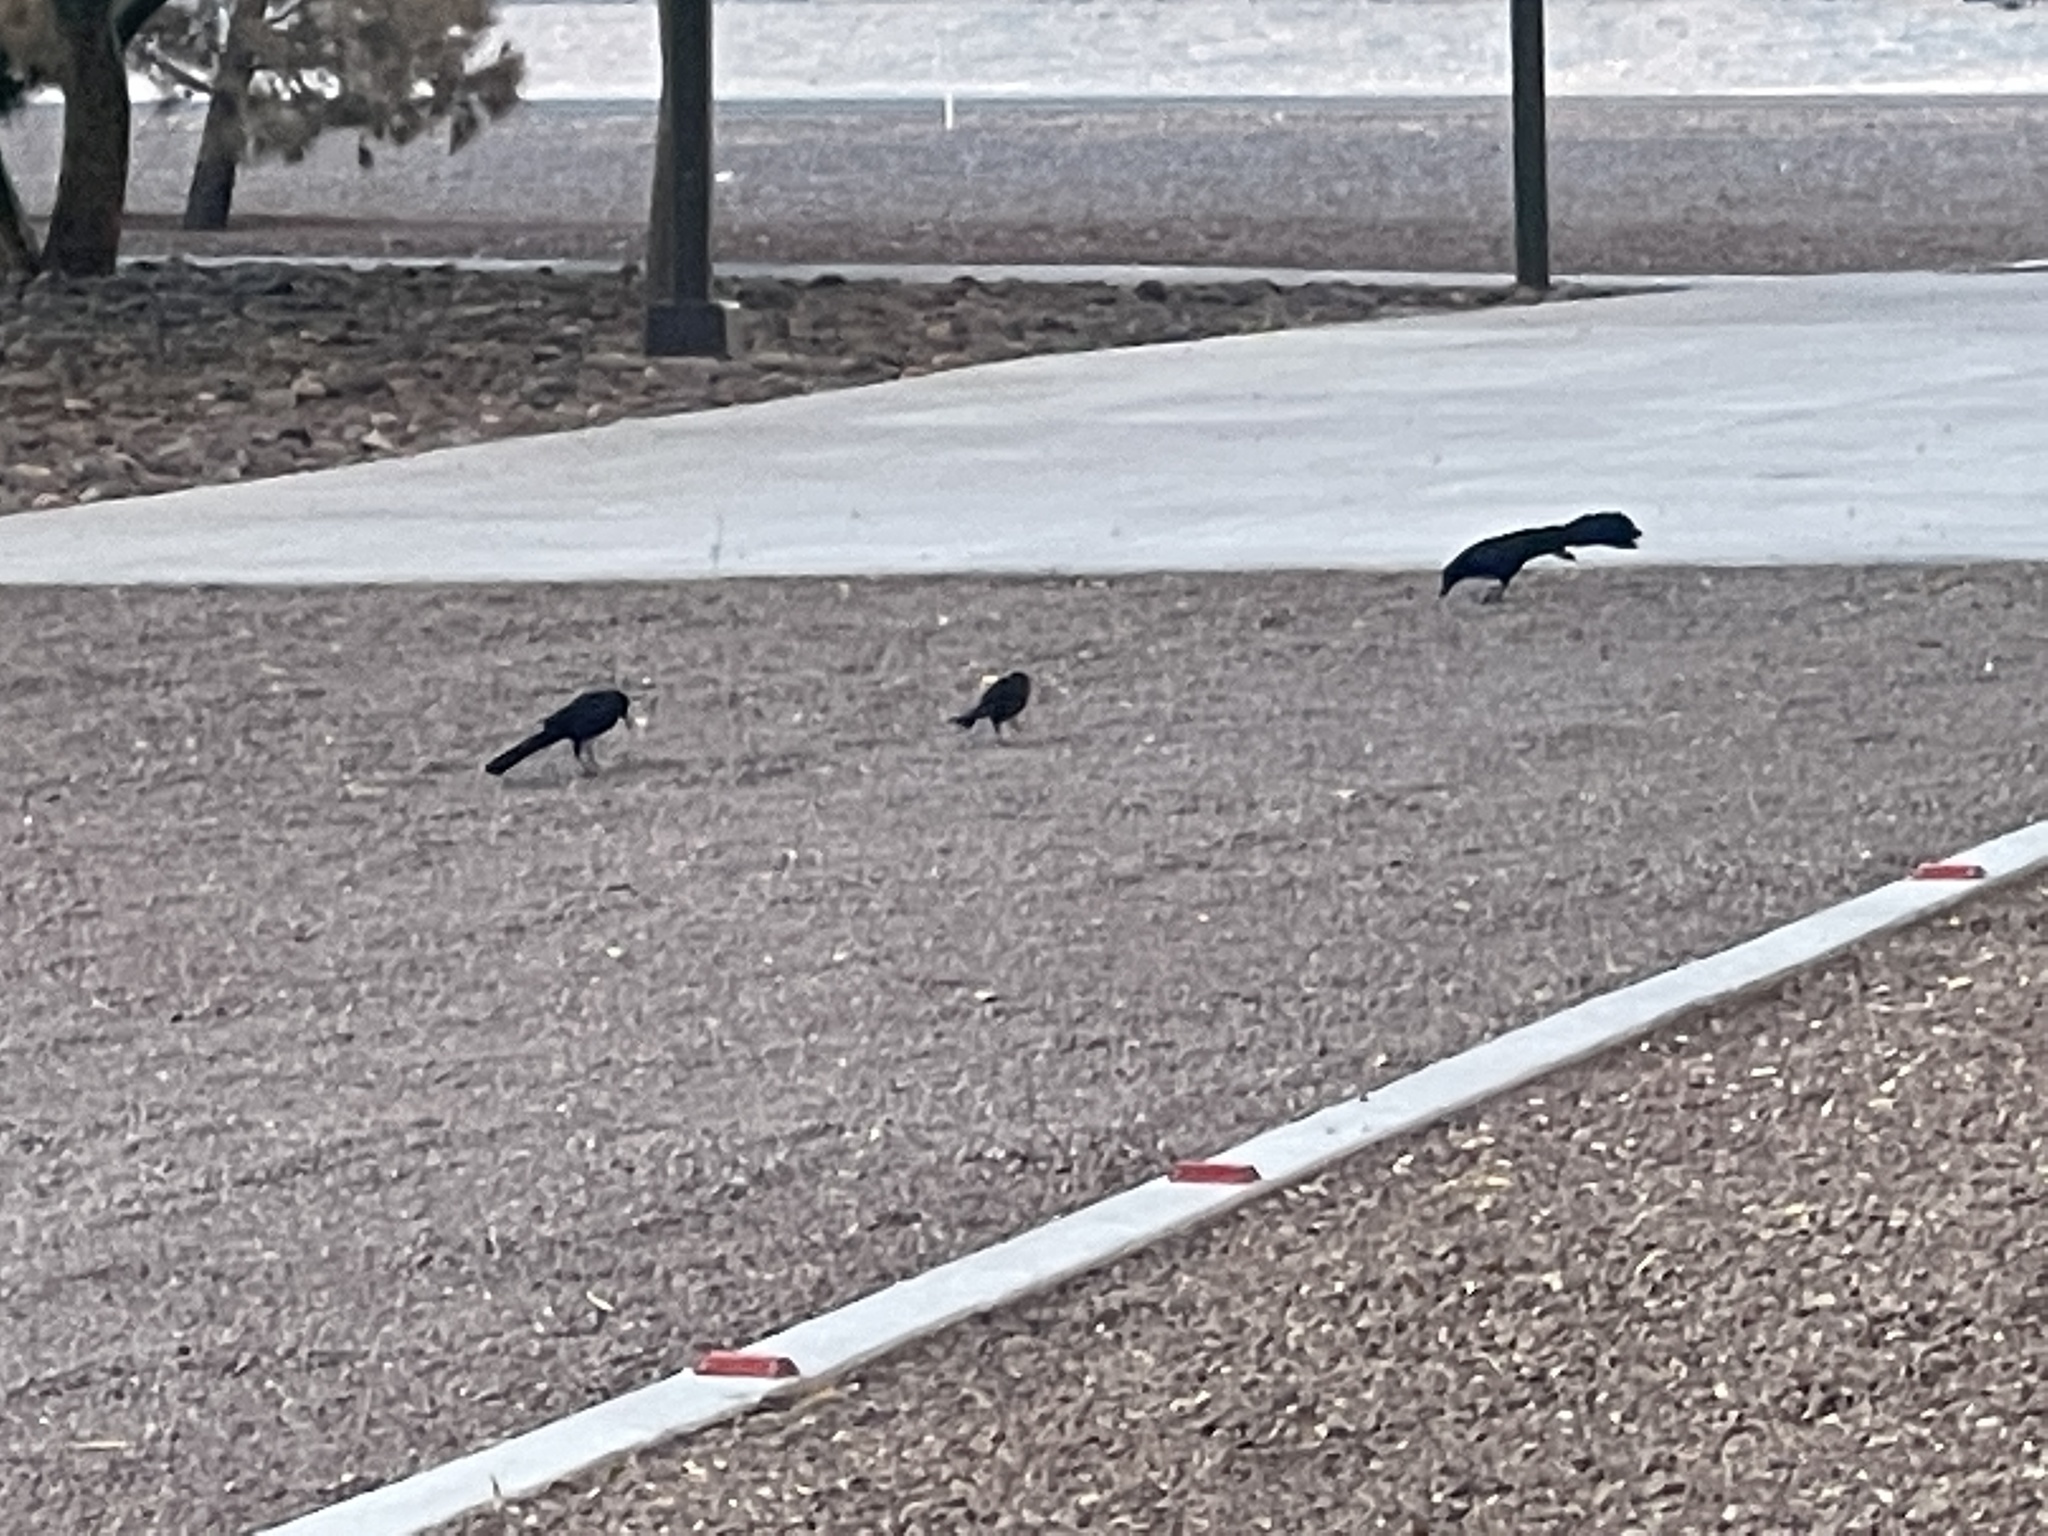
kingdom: Animalia
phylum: Chordata
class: Aves
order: Passeriformes
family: Icteridae
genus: Quiscalus
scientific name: Quiscalus mexicanus
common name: Great-tailed grackle
